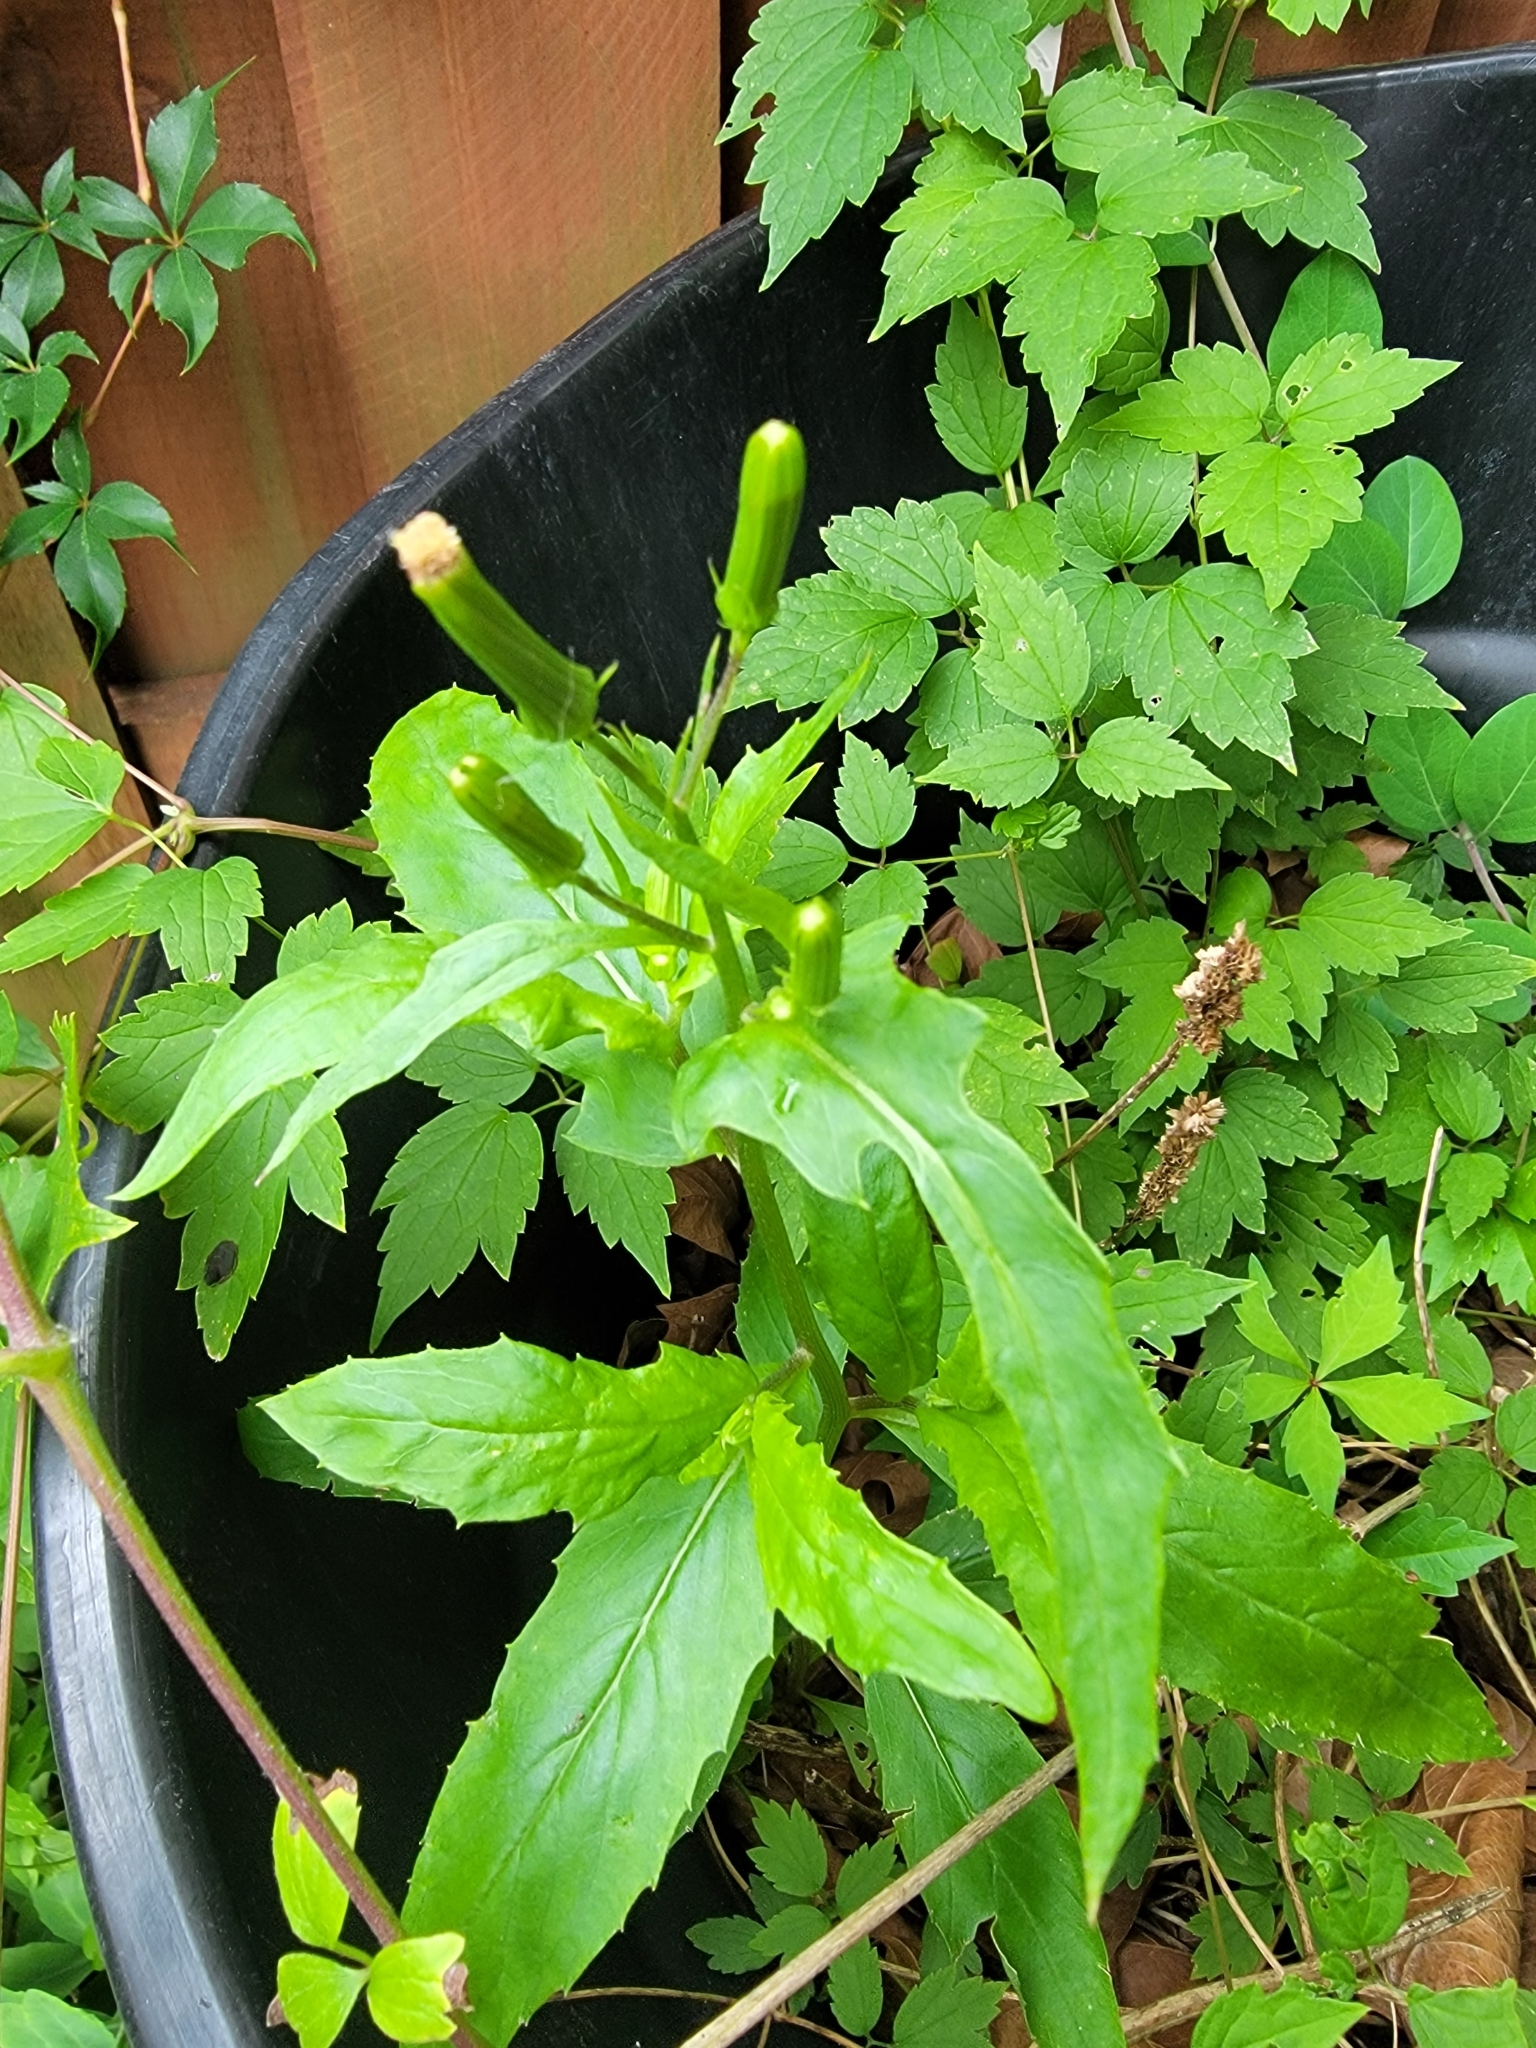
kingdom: Plantae
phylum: Tracheophyta
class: Magnoliopsida
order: Asterales
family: Asteraceae
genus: Erechtites
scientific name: Erechtites hieraciifolius
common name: American burnweed
